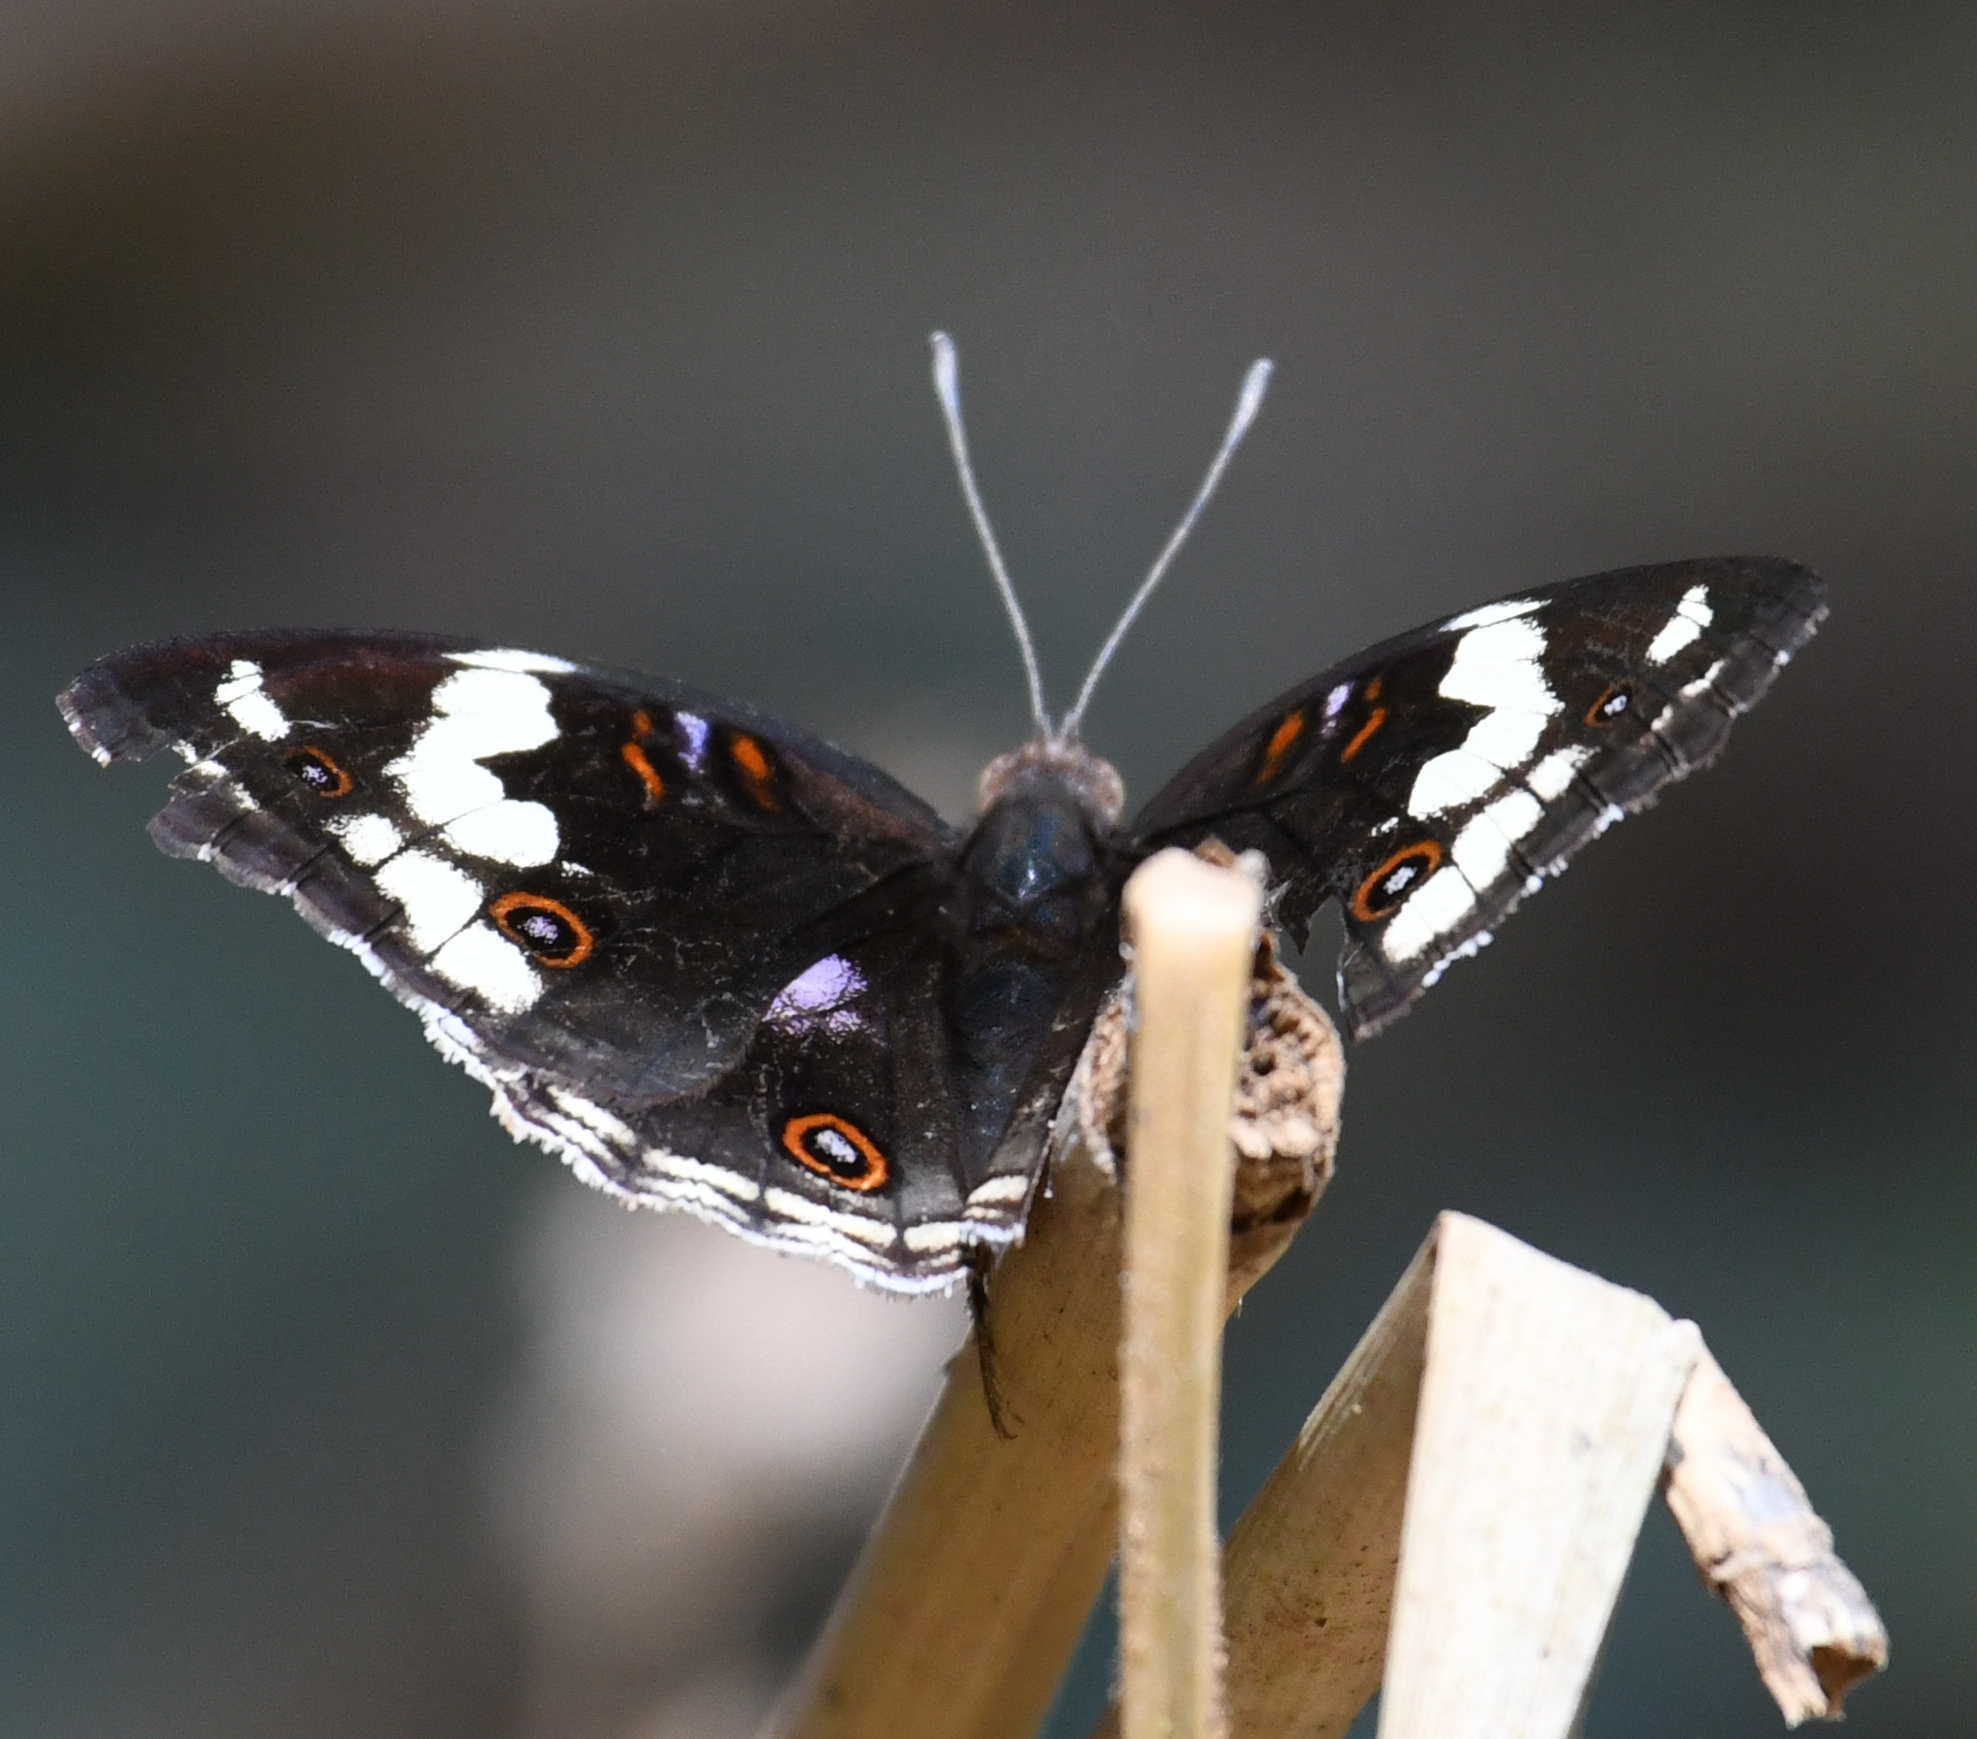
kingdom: Animalia
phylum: Arthropoda
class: Insecta
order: Lepidoptera
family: Nymphalidae
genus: Junonia
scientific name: Junonia oenone
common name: Dark blue pansy
